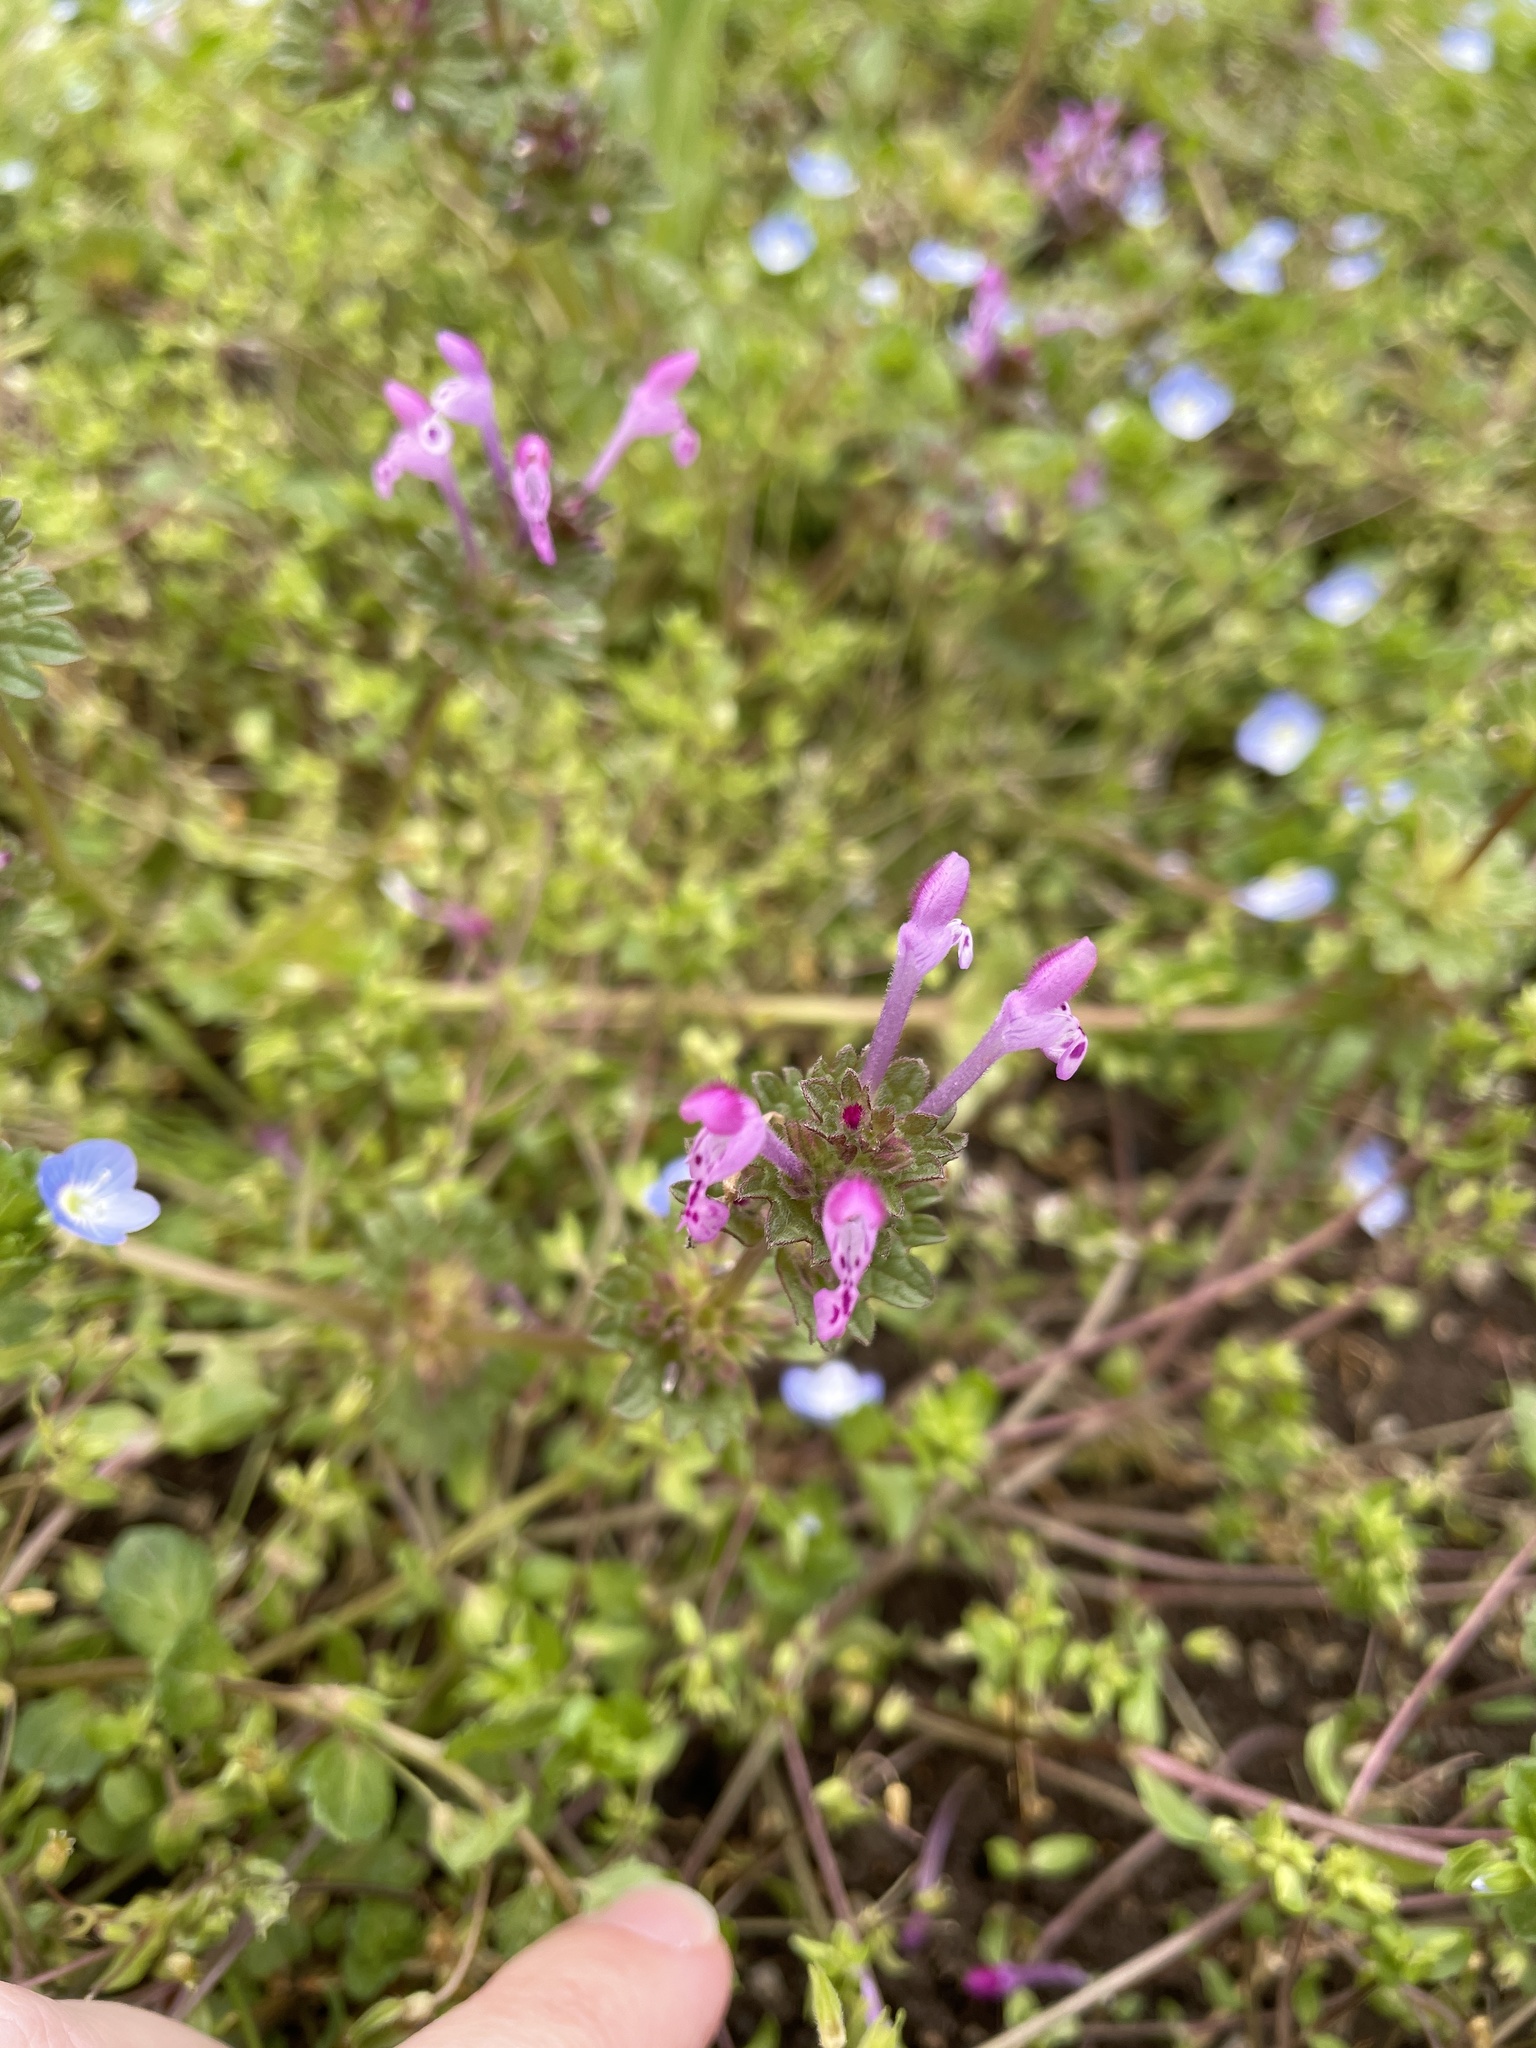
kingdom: Plantae
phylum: Tracheophyta
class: Magnoliopsida
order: Lamiales
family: Lamiaceae
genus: Lamium
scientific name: Lamium amplexicaule
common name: Henbit dead-nettle
